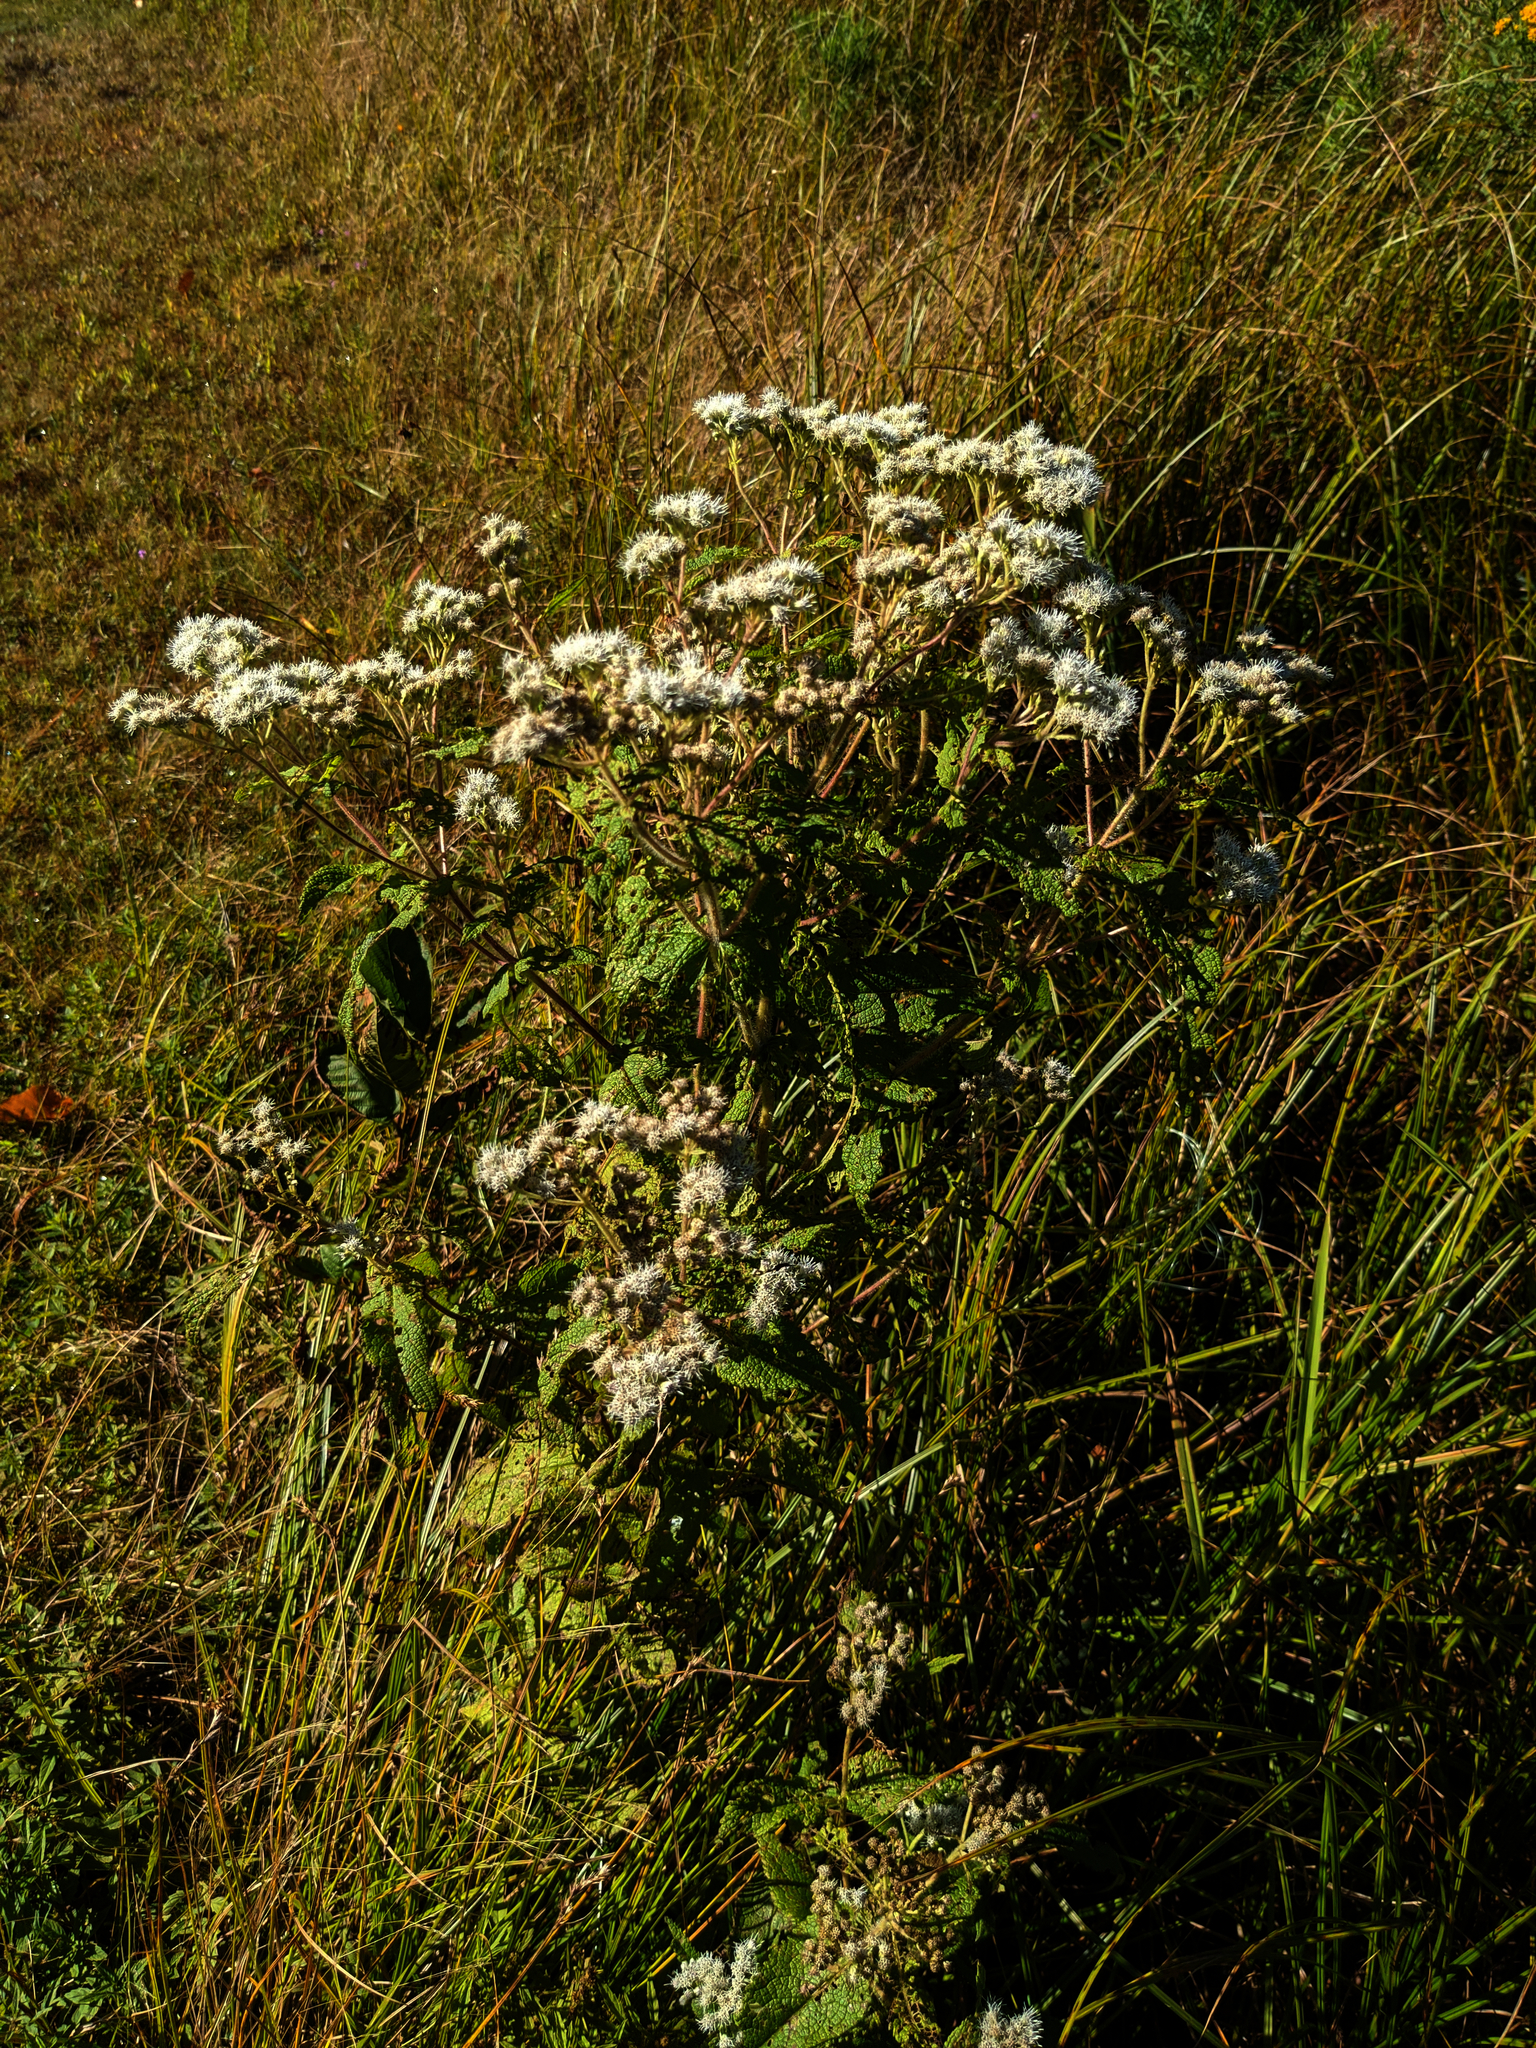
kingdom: Plantae
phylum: Tracheophyta
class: Magnoliopsida
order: Asterales
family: Asteraceae
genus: Eupatorium
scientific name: Eupatorium perfoliatum
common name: Boneset
